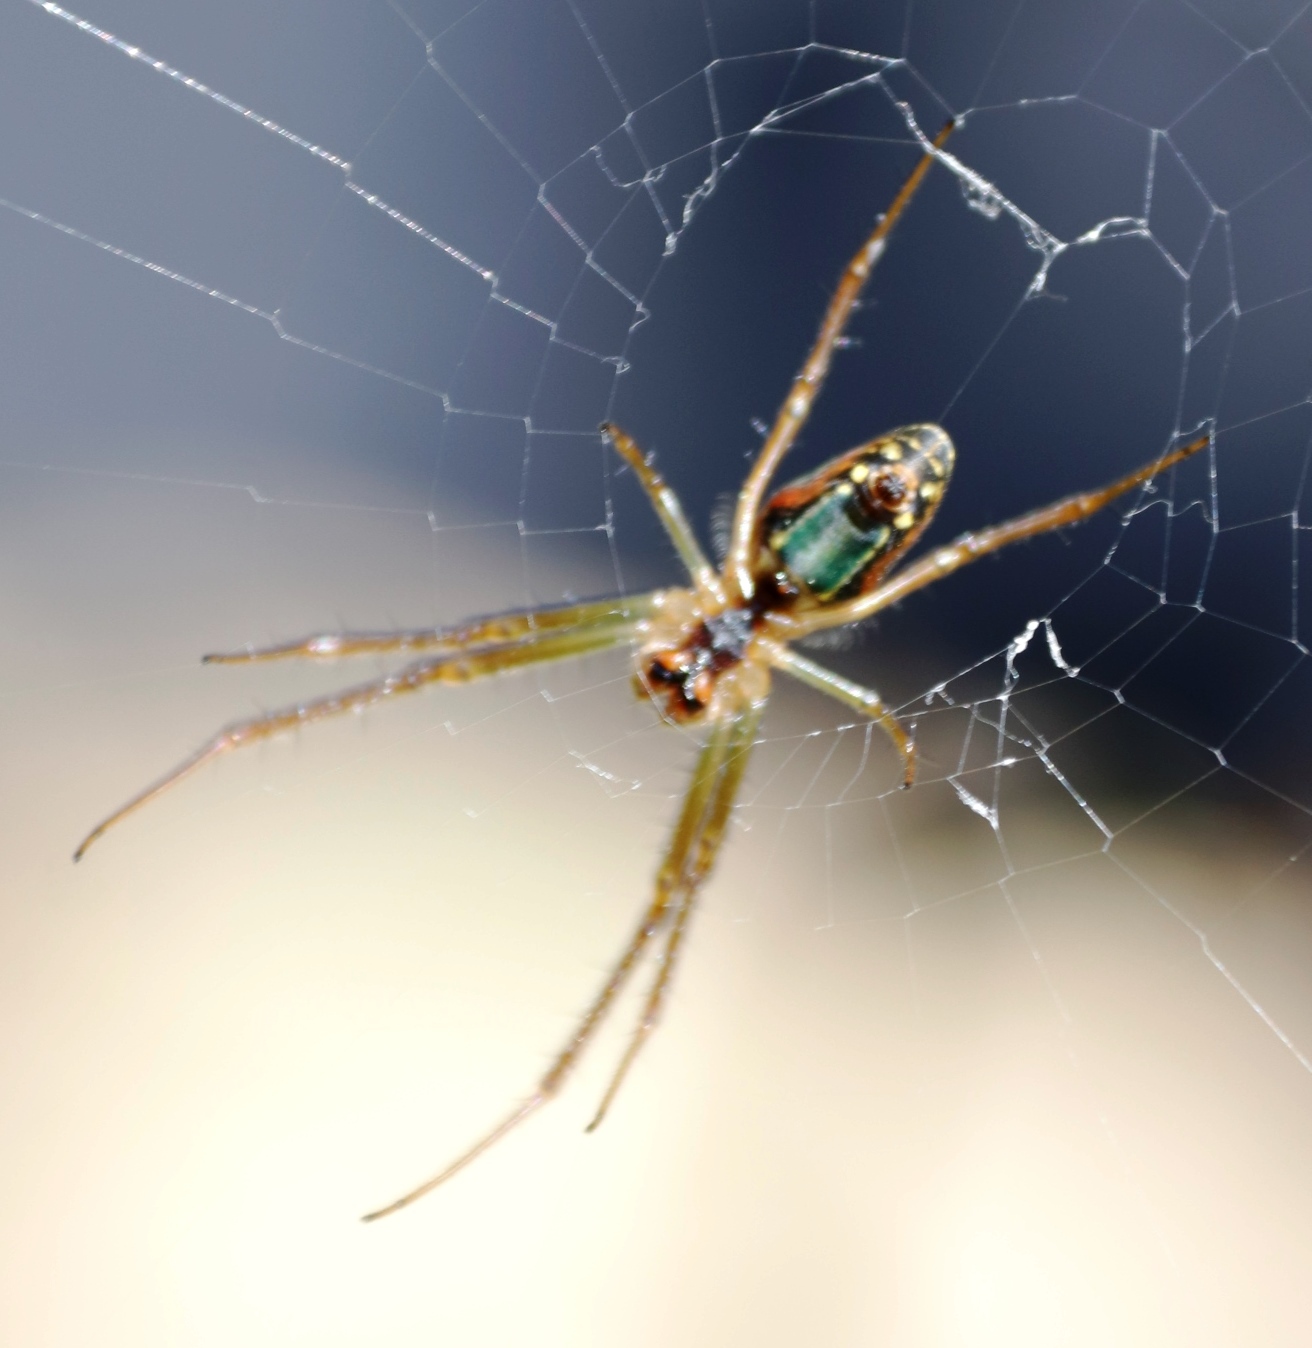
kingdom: Animalia
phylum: Arthropoda
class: Arachnida
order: Araneae
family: Tetragnathidae
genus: Leucauge
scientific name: Leucauge festiva
